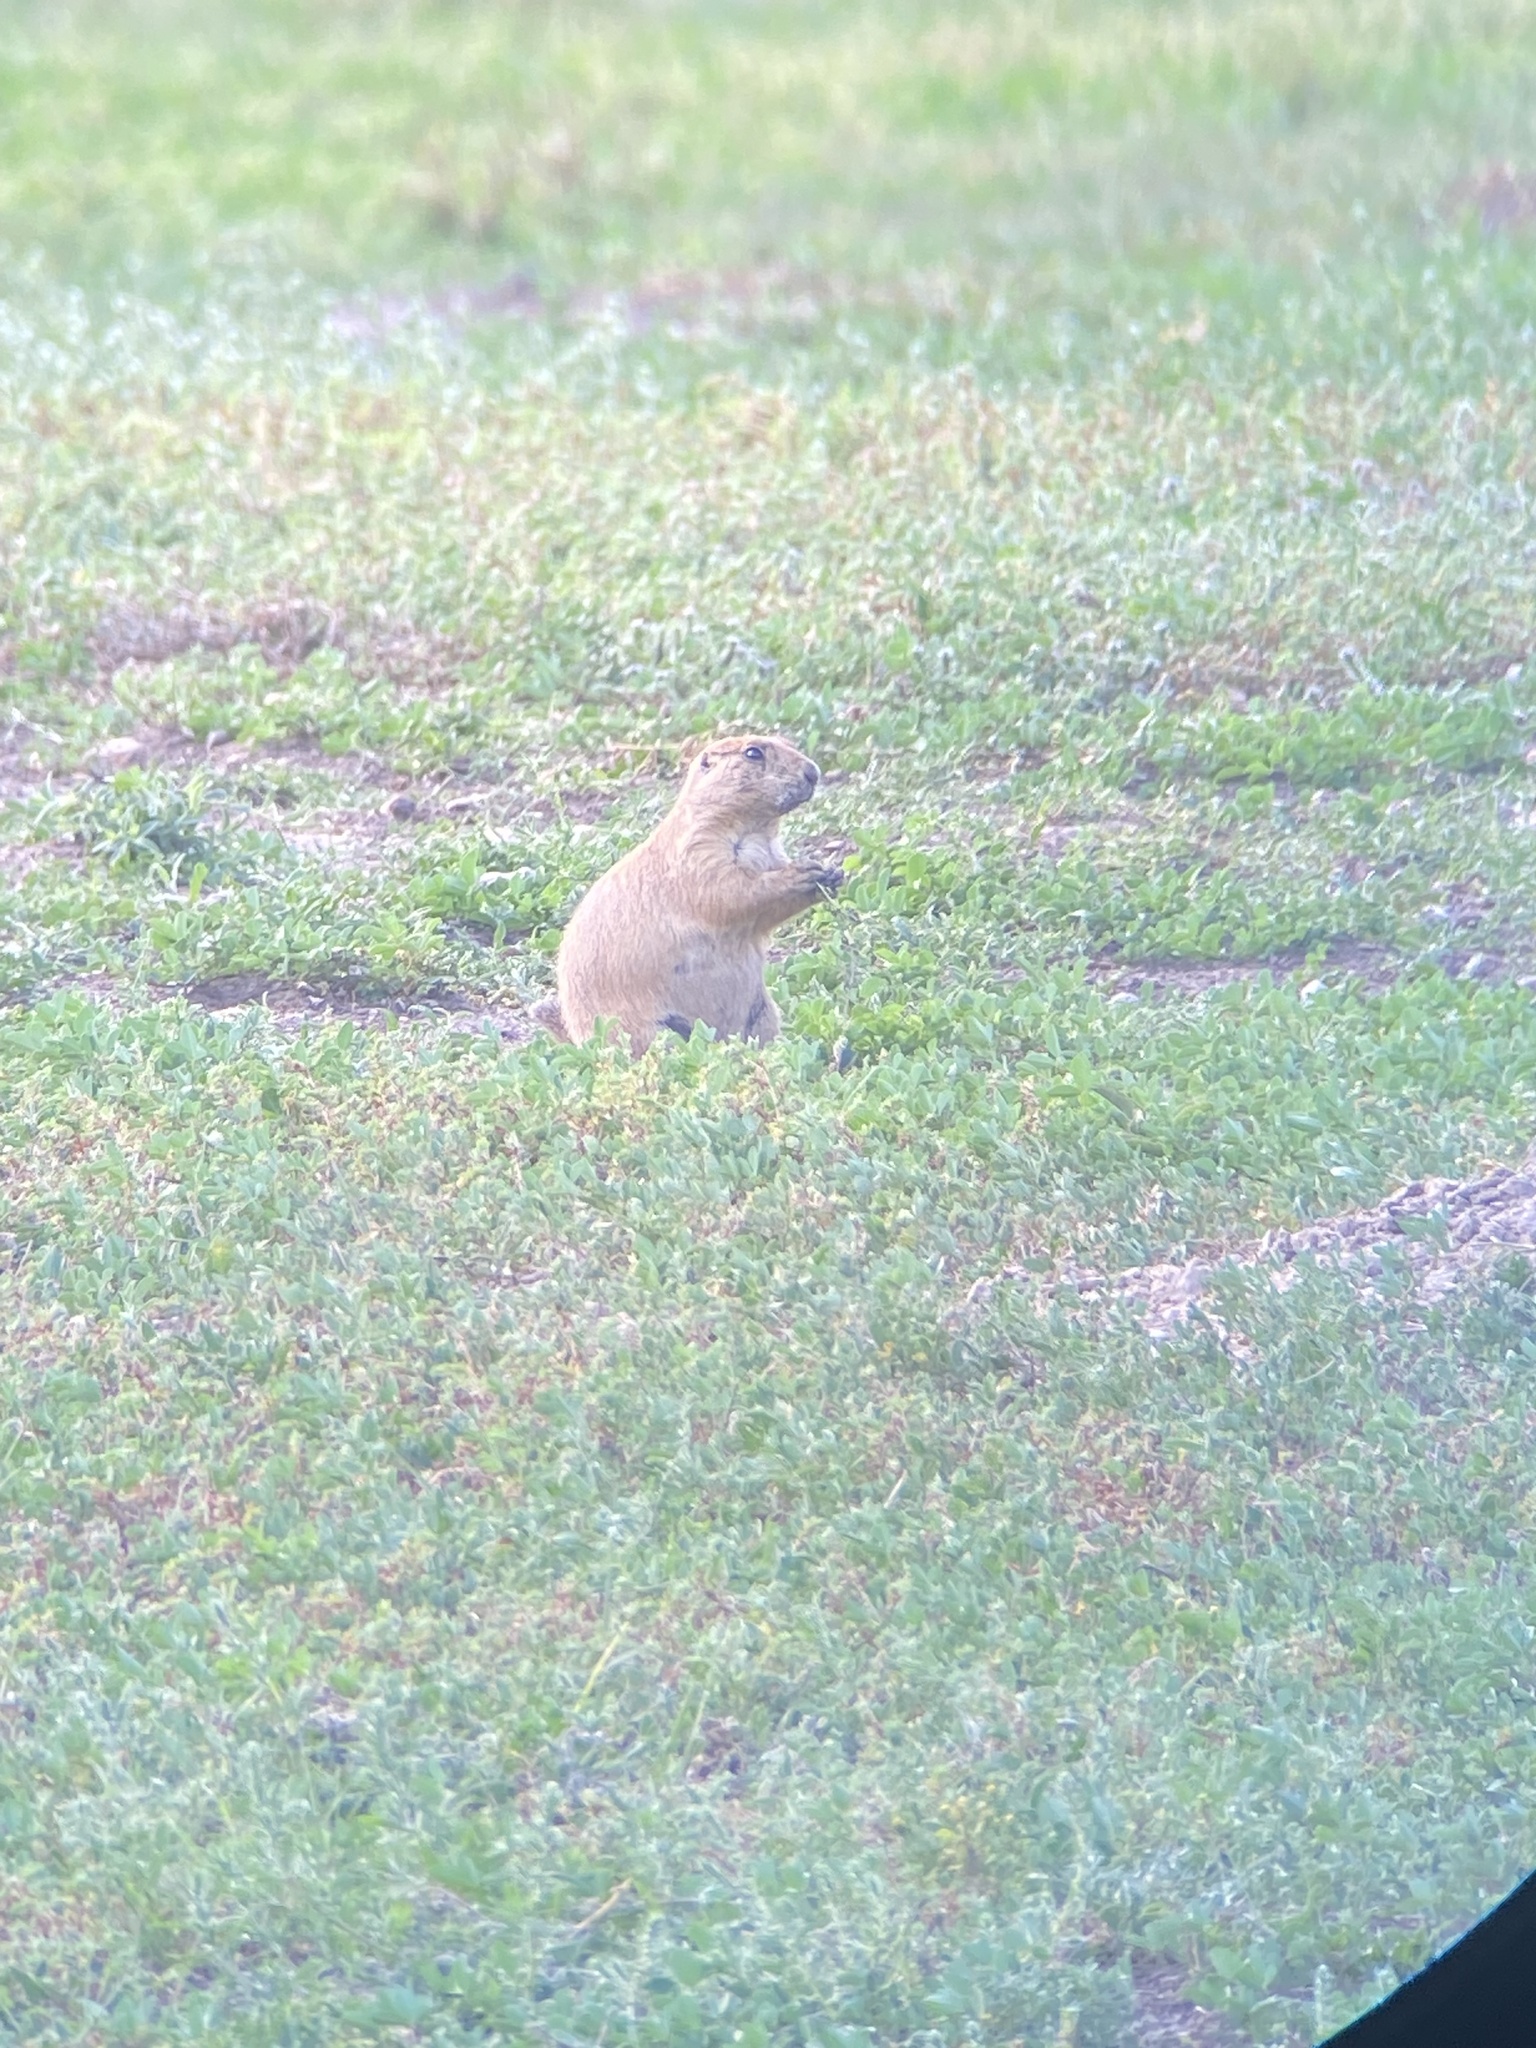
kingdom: Animalia
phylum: Chordata
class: Mammalia
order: Rodentia
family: Sciuridae
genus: Cynomys
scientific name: Cynomys ludovicianus
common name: Black-tailed prairie dog
